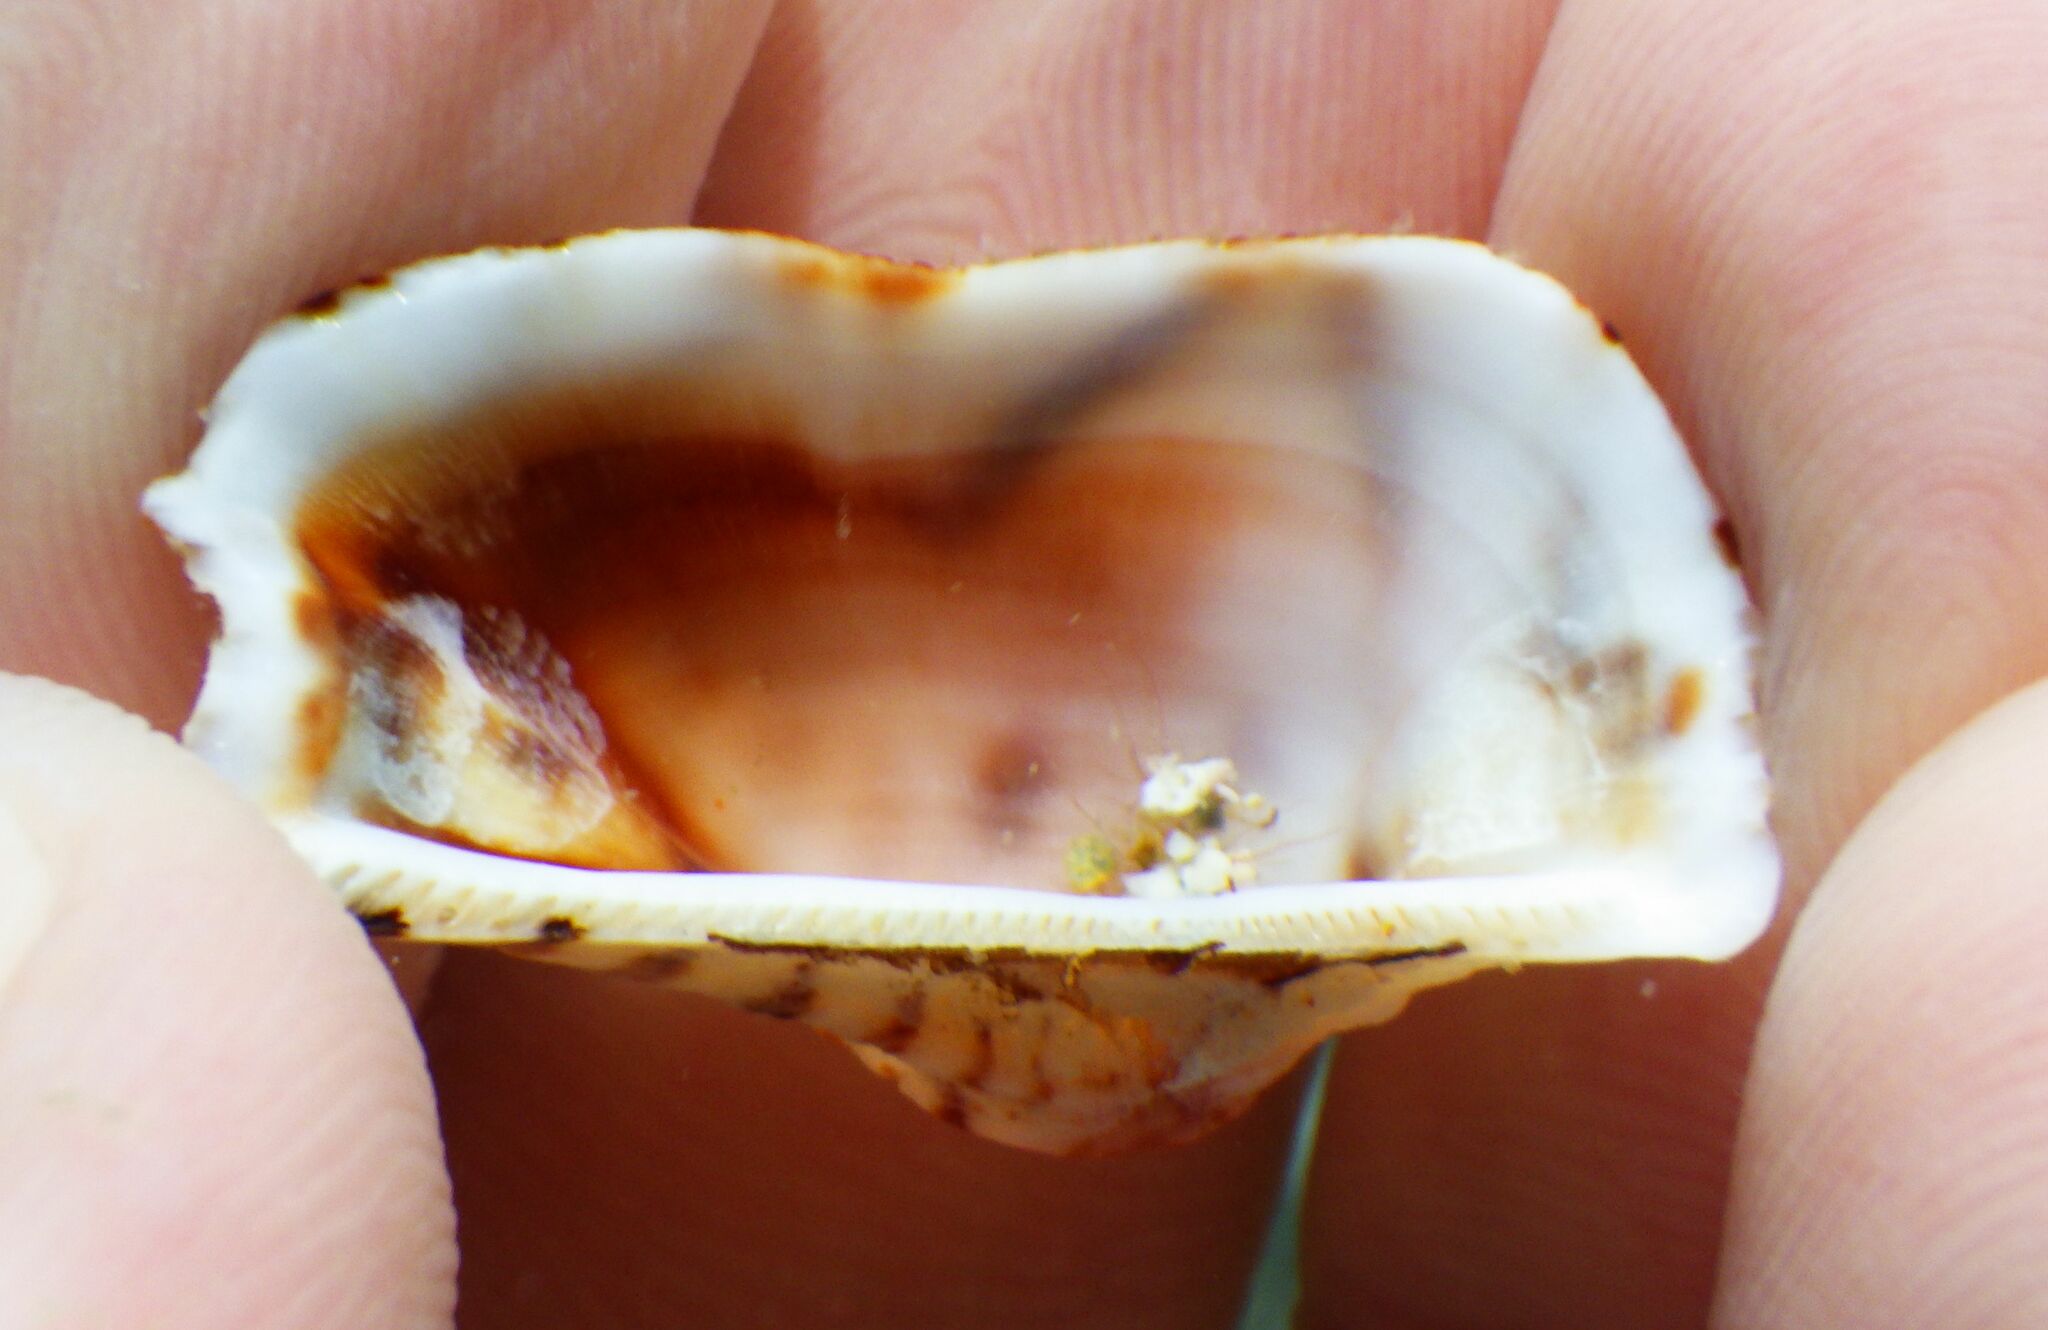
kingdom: Animalia
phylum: Mollusca
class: Bivalvia
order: Arcida
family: Arcidae
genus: Arca
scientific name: Arca noae
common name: Noah's arch
